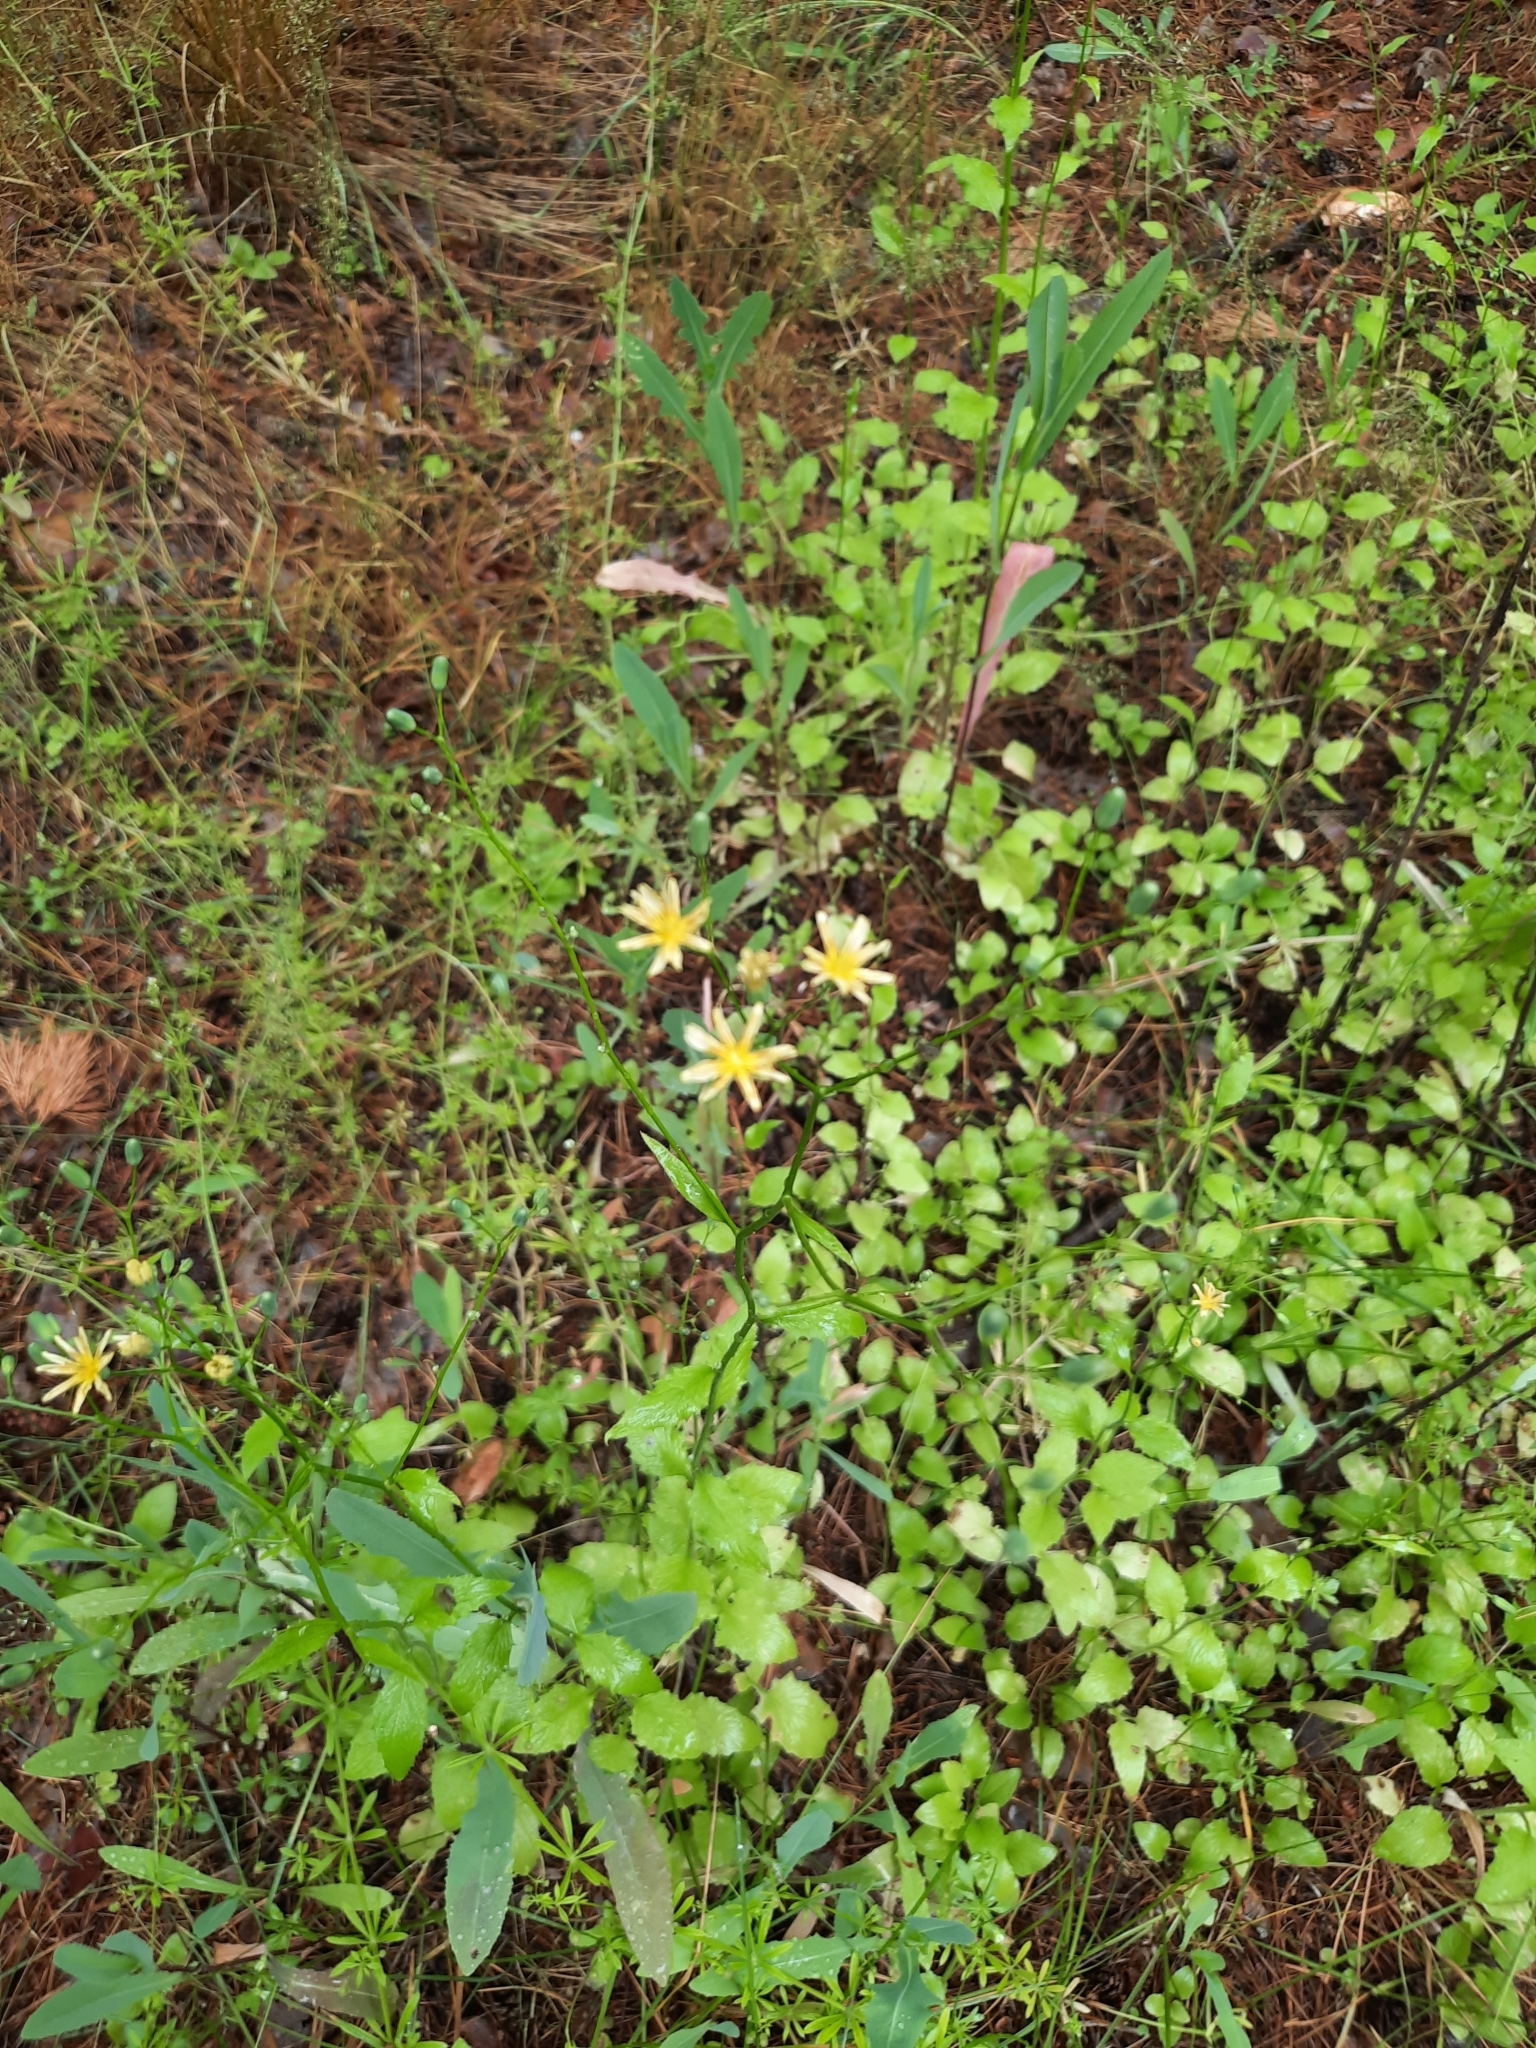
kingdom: Plantae
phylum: Tracheophyta
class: Magnoliopsida
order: Asterales
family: Asteraceae
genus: Lapsana
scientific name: Lapsana communis
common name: Nipplewort
